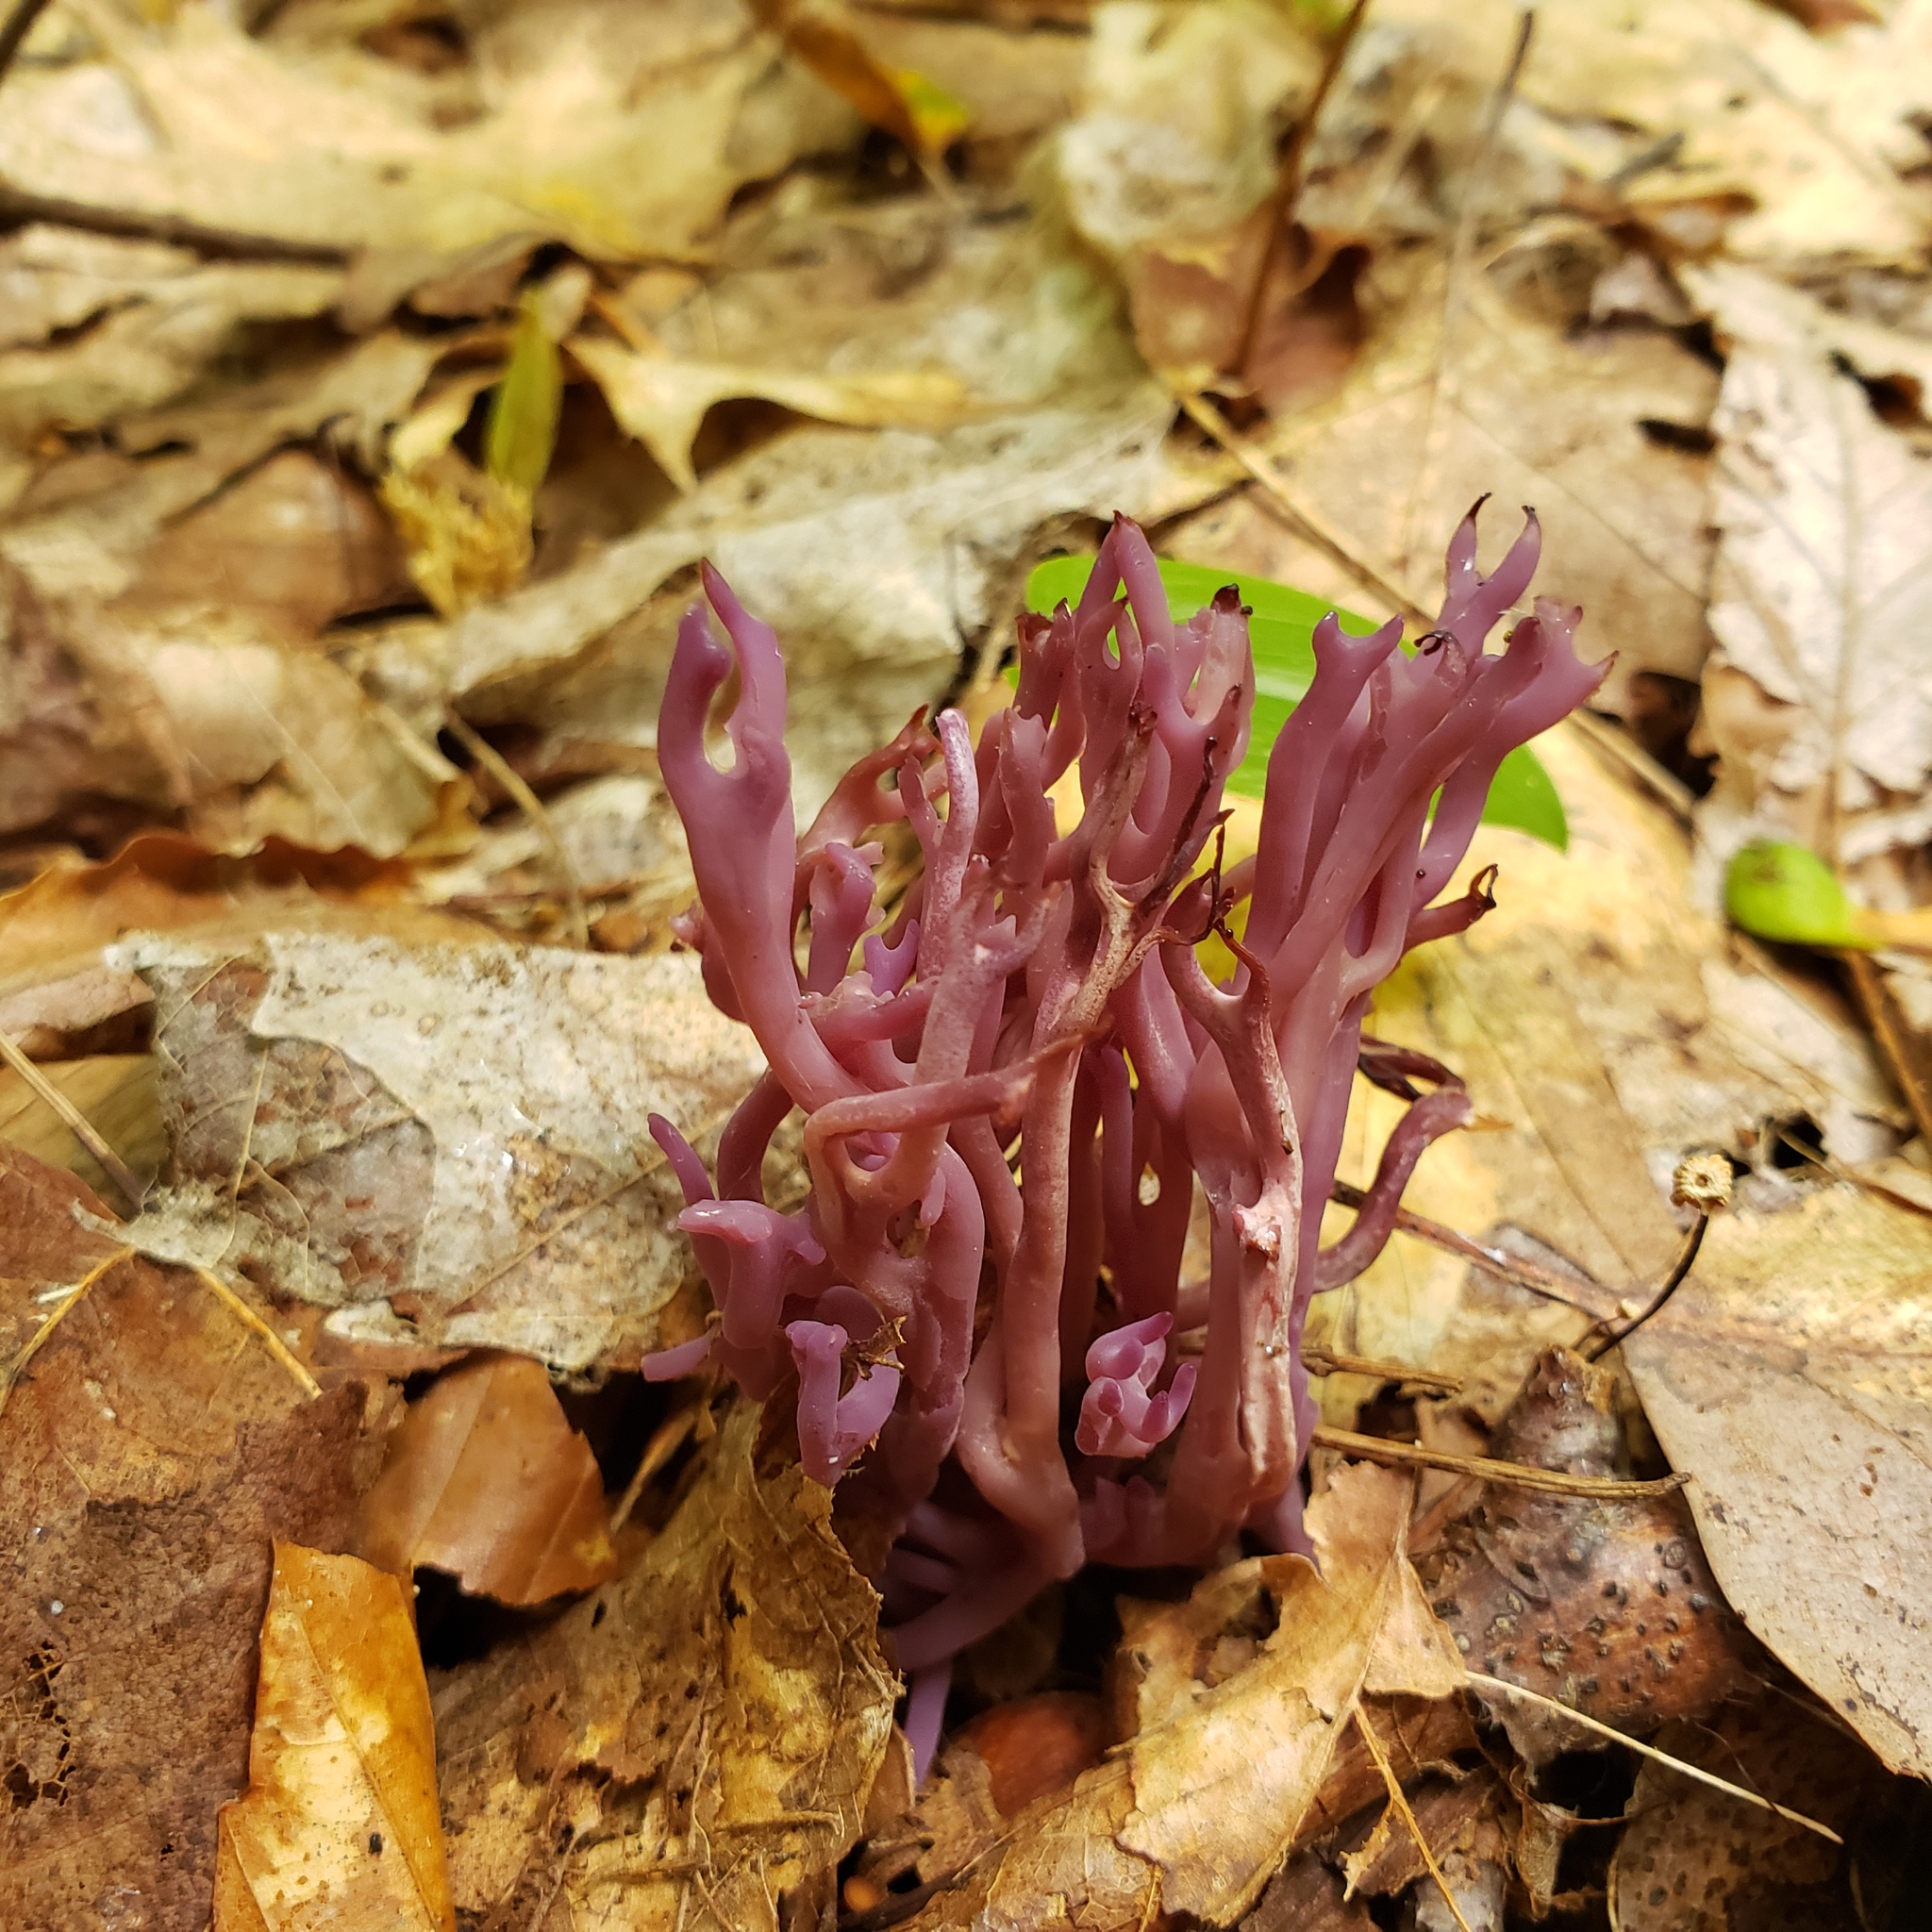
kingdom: Fungi
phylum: Basidiomycota
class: Agaricomycetes
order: Agaricales
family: Clavariaceae
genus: Clavaria
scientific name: Clavaria zollingeri
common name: Violet coral
